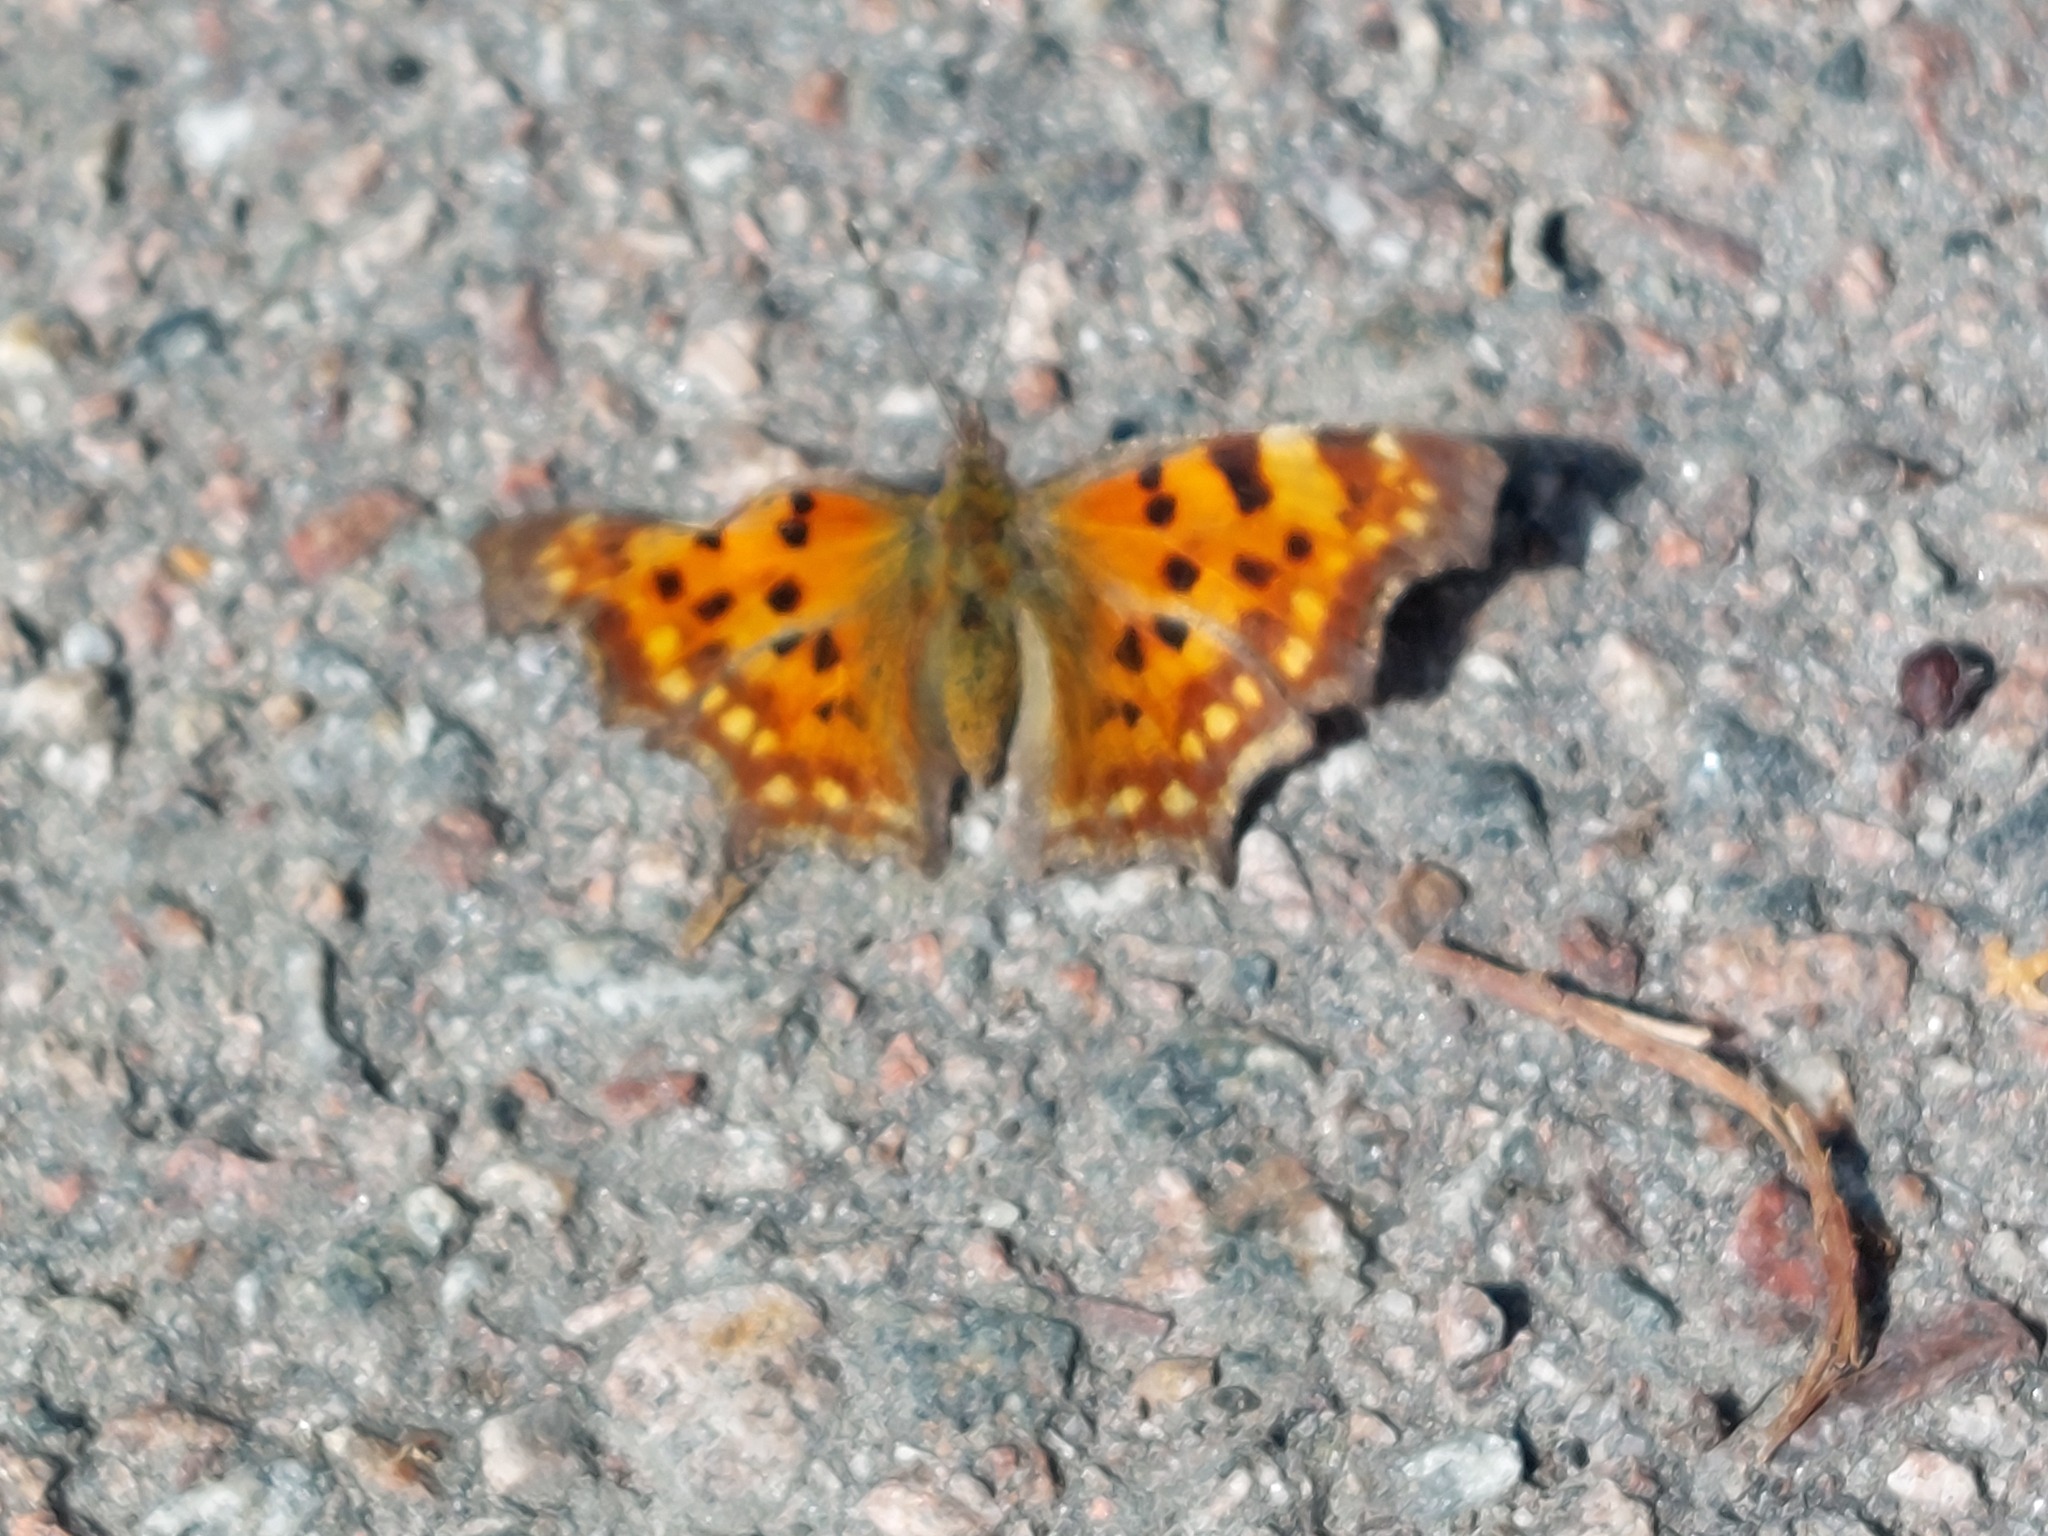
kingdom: Animalia
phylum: Arthropoda
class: Insecta
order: Lepidoptera
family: Nymphalidae
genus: Polygonia
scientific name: Polygonia c-album
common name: Comma
